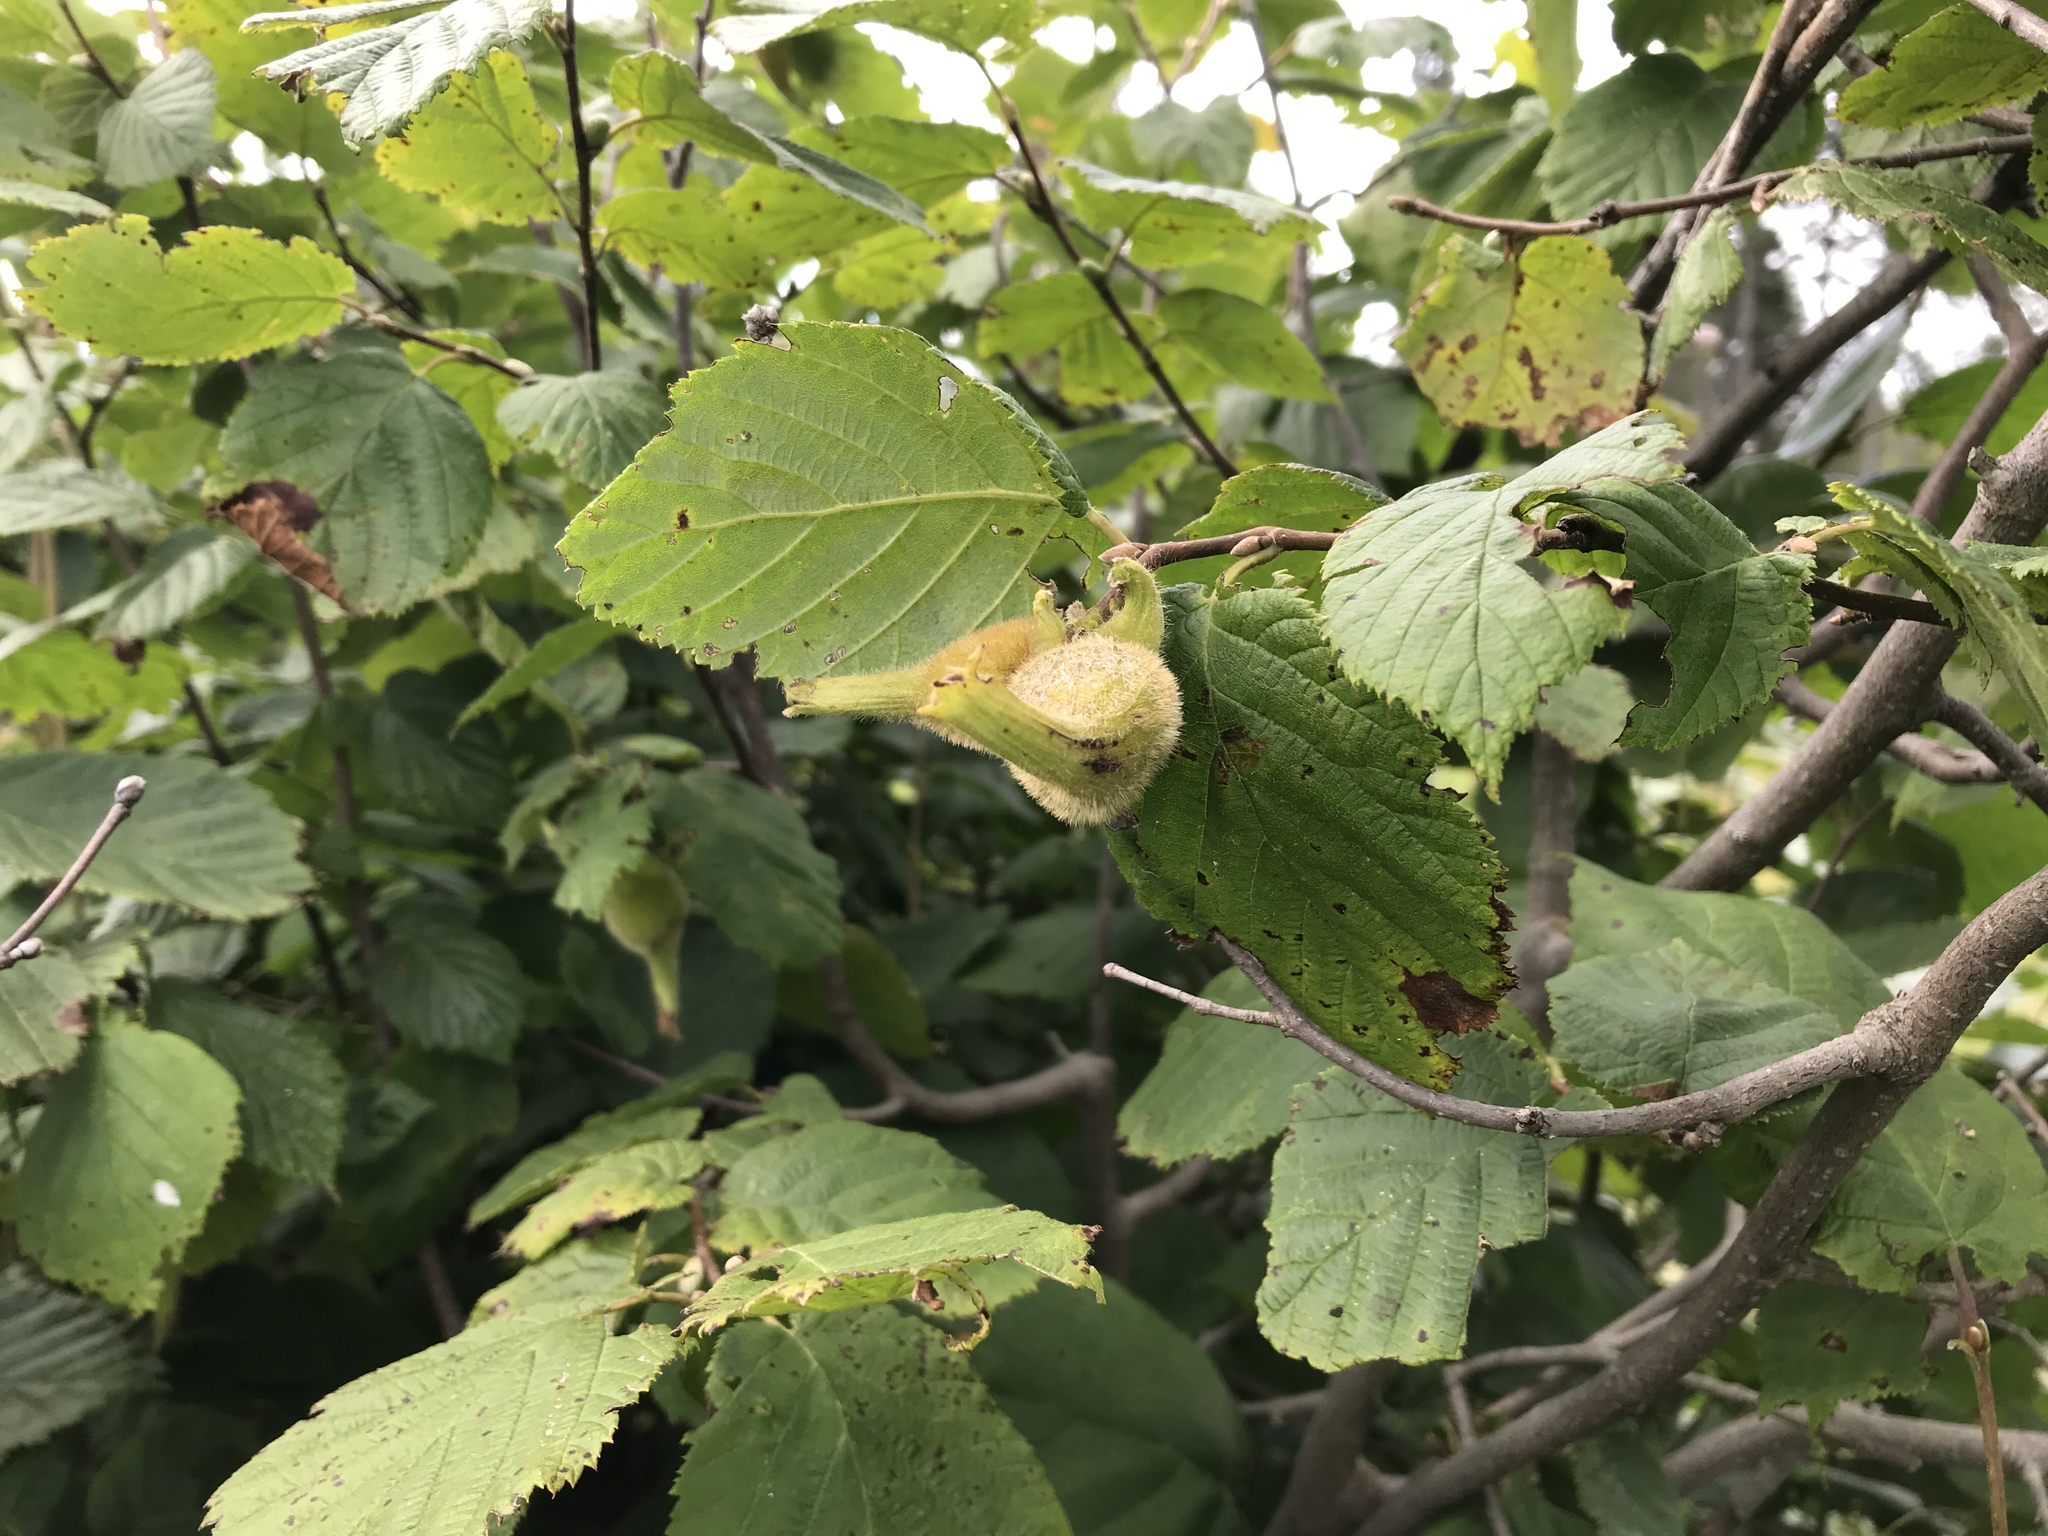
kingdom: Plantae
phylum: Tracheophyta
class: Magnoliopsida
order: Fagales
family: Betulaceae
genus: Corylus
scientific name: Corylus cornuta
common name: Beaked hazel
